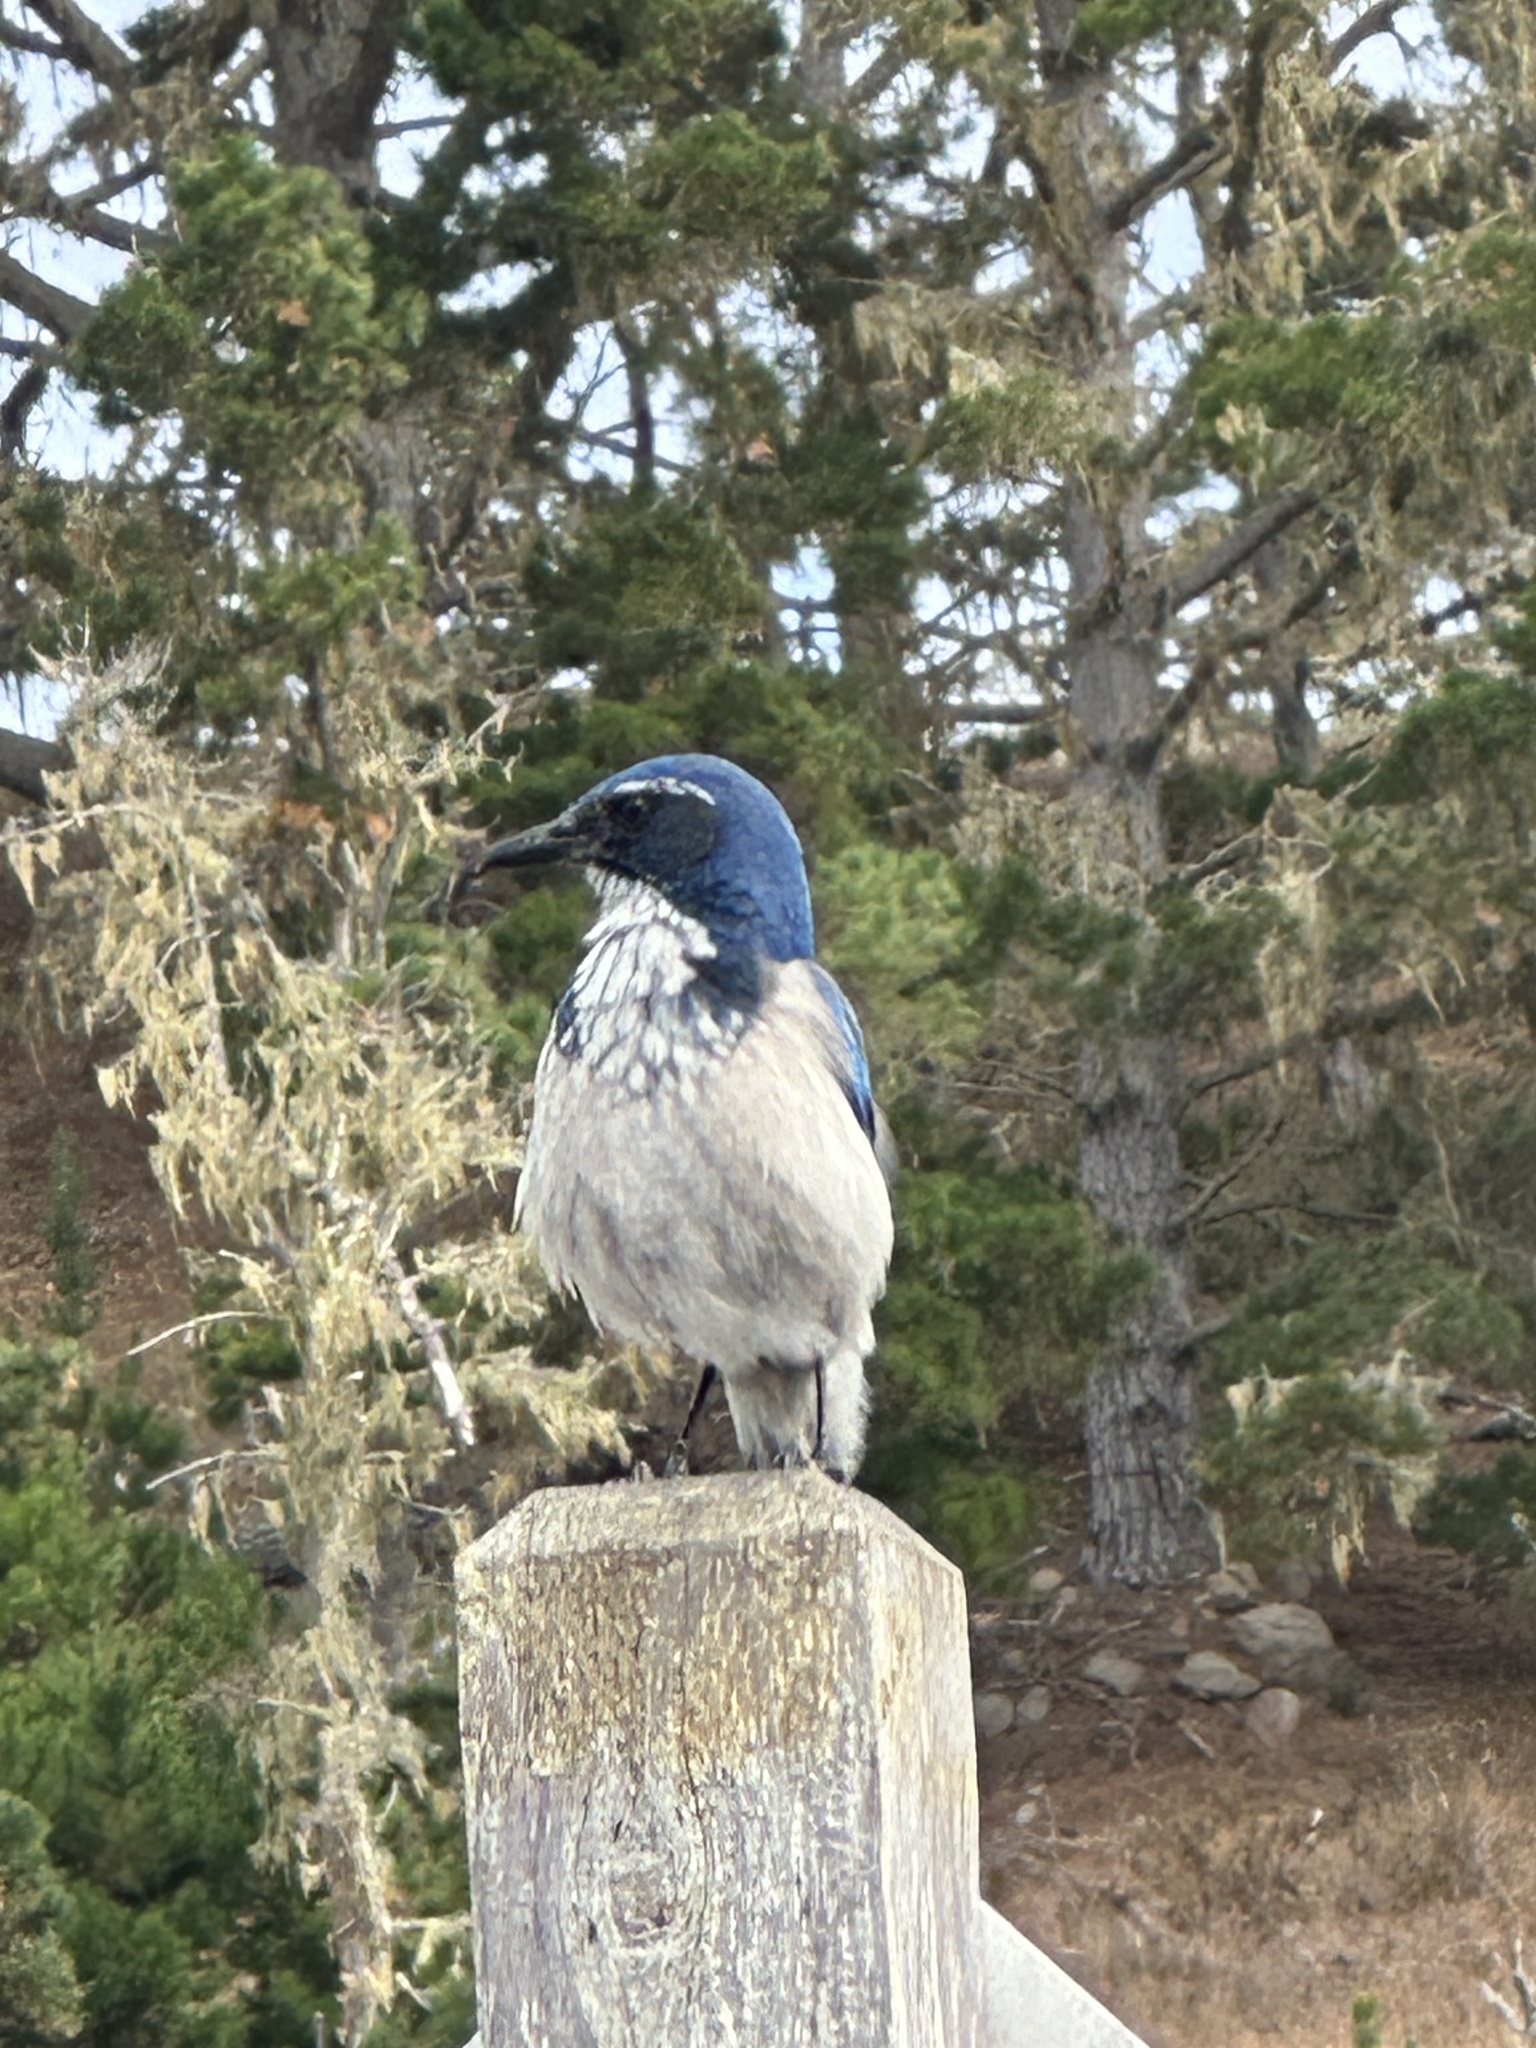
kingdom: Animalia
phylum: Chordata
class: Aves
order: Passeriformes
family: Corvidae
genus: Aphelocoma
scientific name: Aphelocoma californica
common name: California scrub-jay
